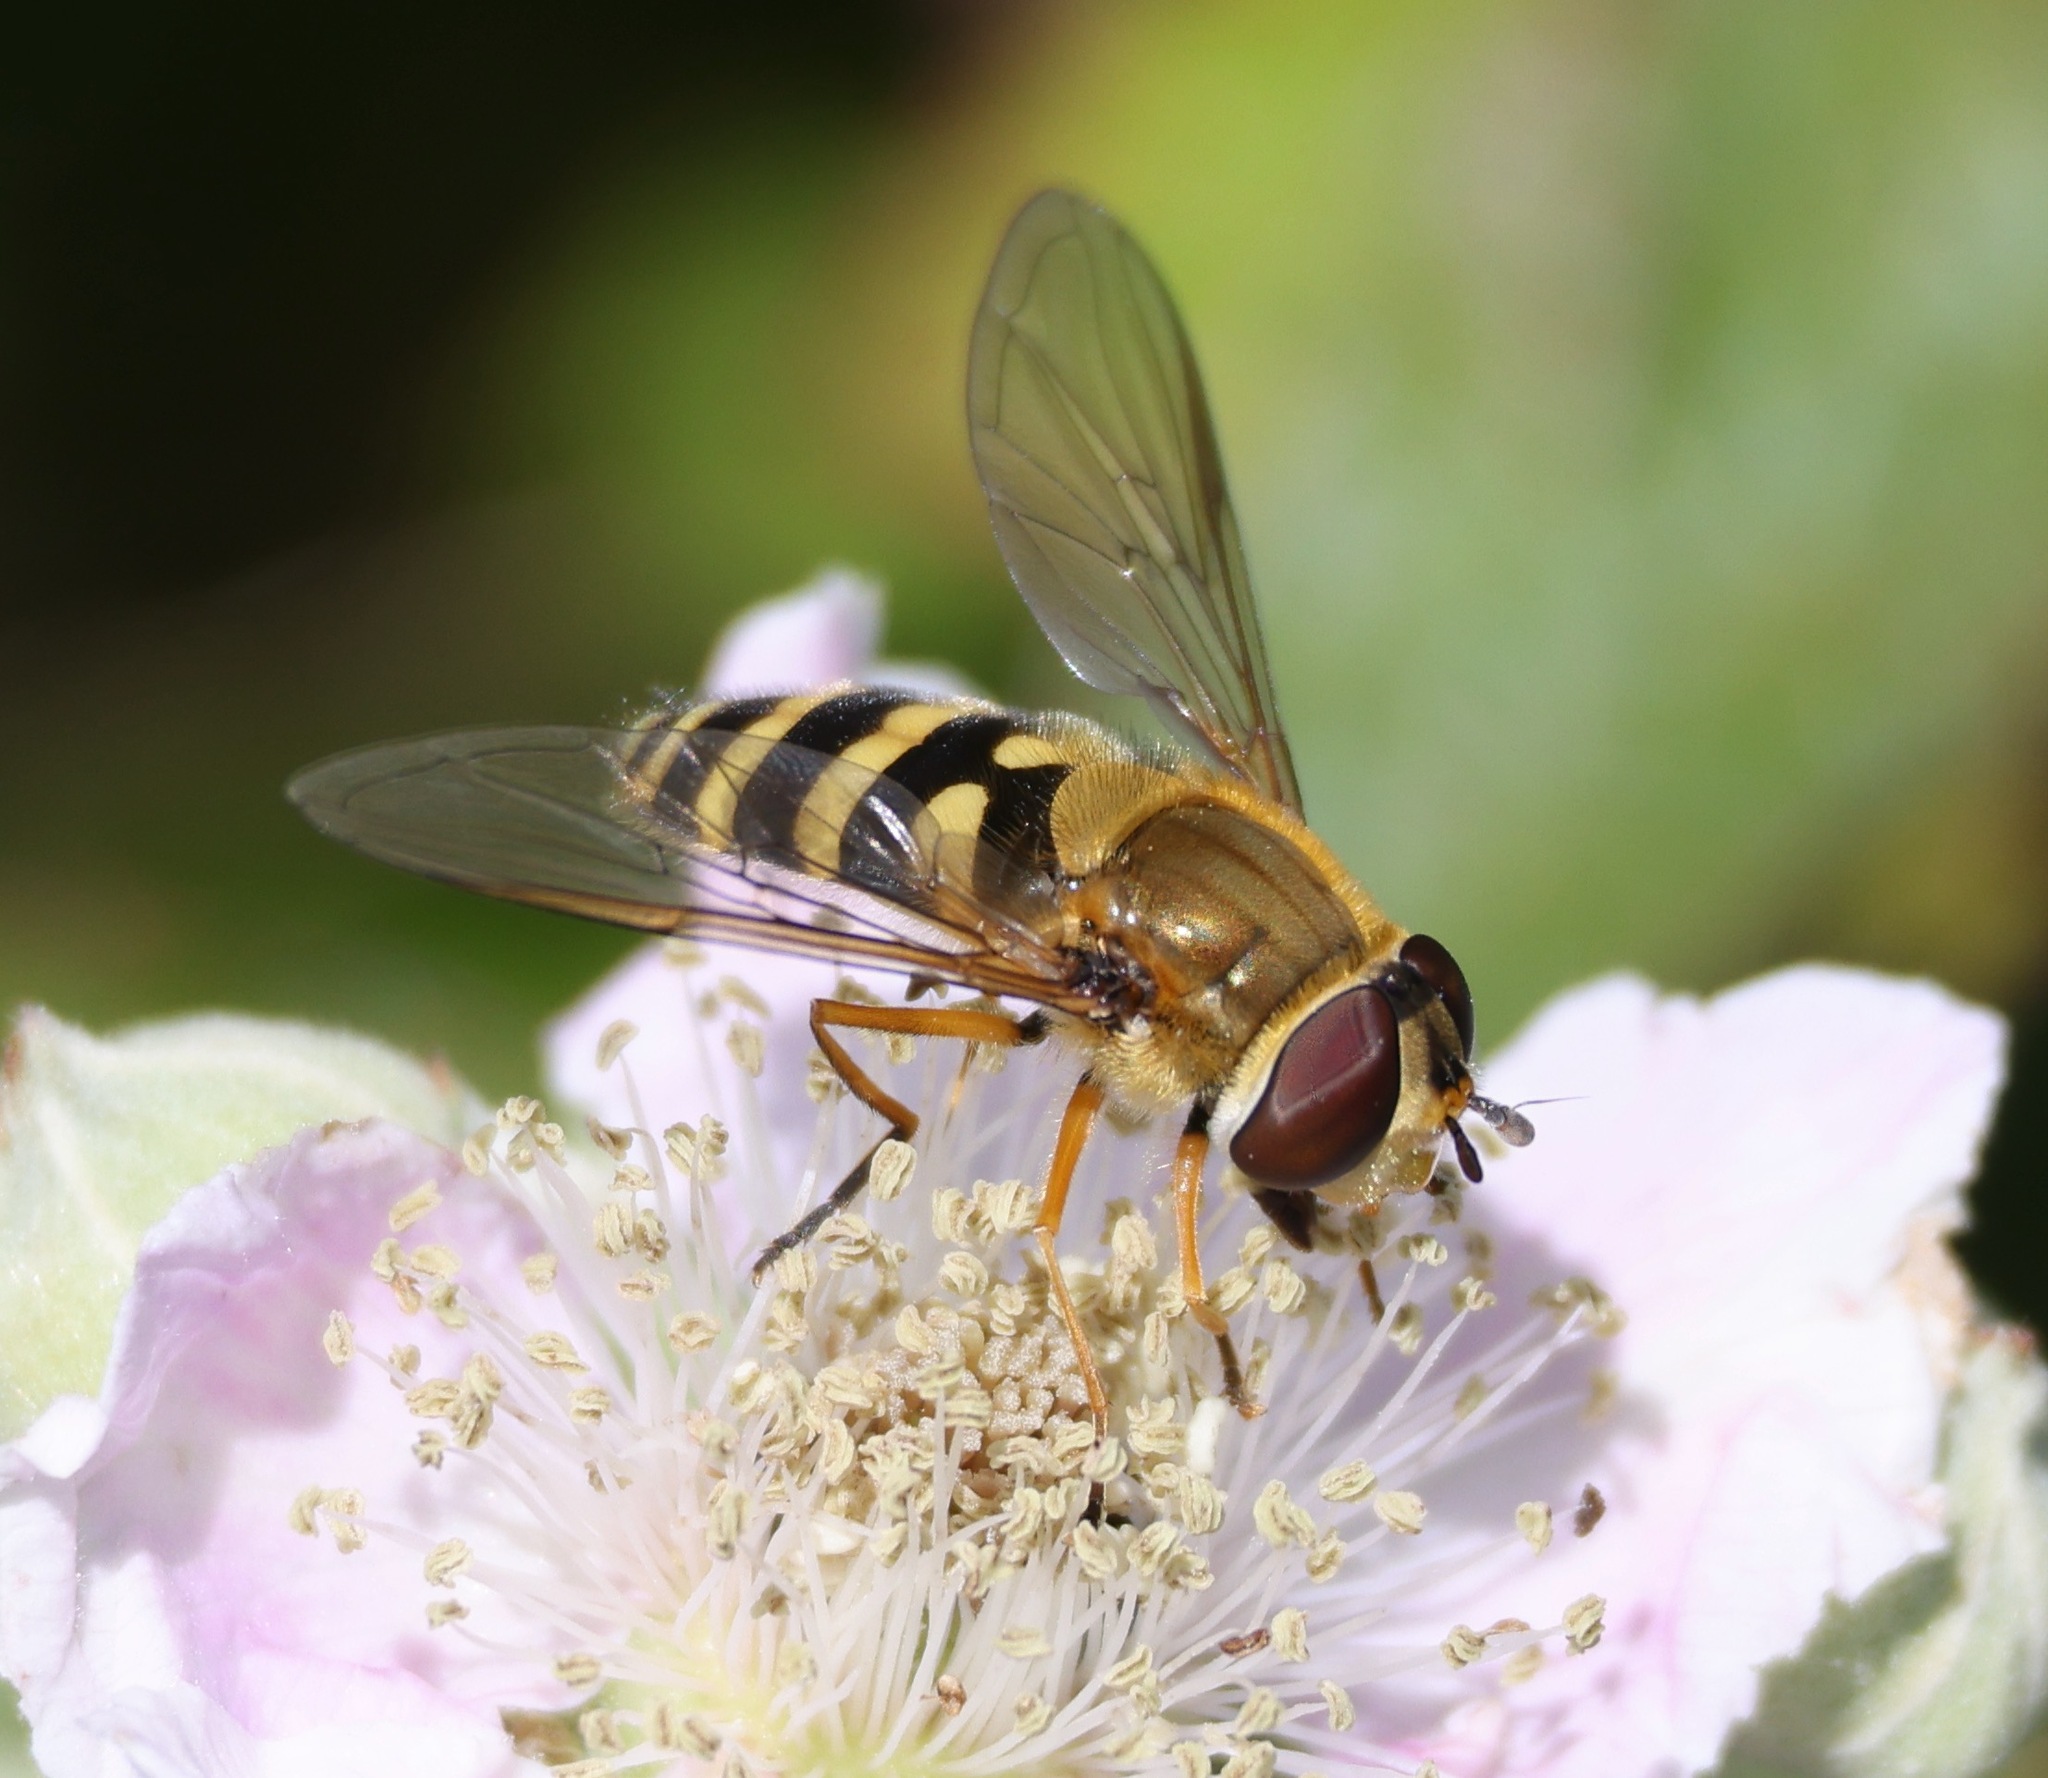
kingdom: Animalia
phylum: Arthropoda
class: Insecta
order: Diptera
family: Syrphidae
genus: Syrphus
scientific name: Syrphus ribesii
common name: Common flower fly
